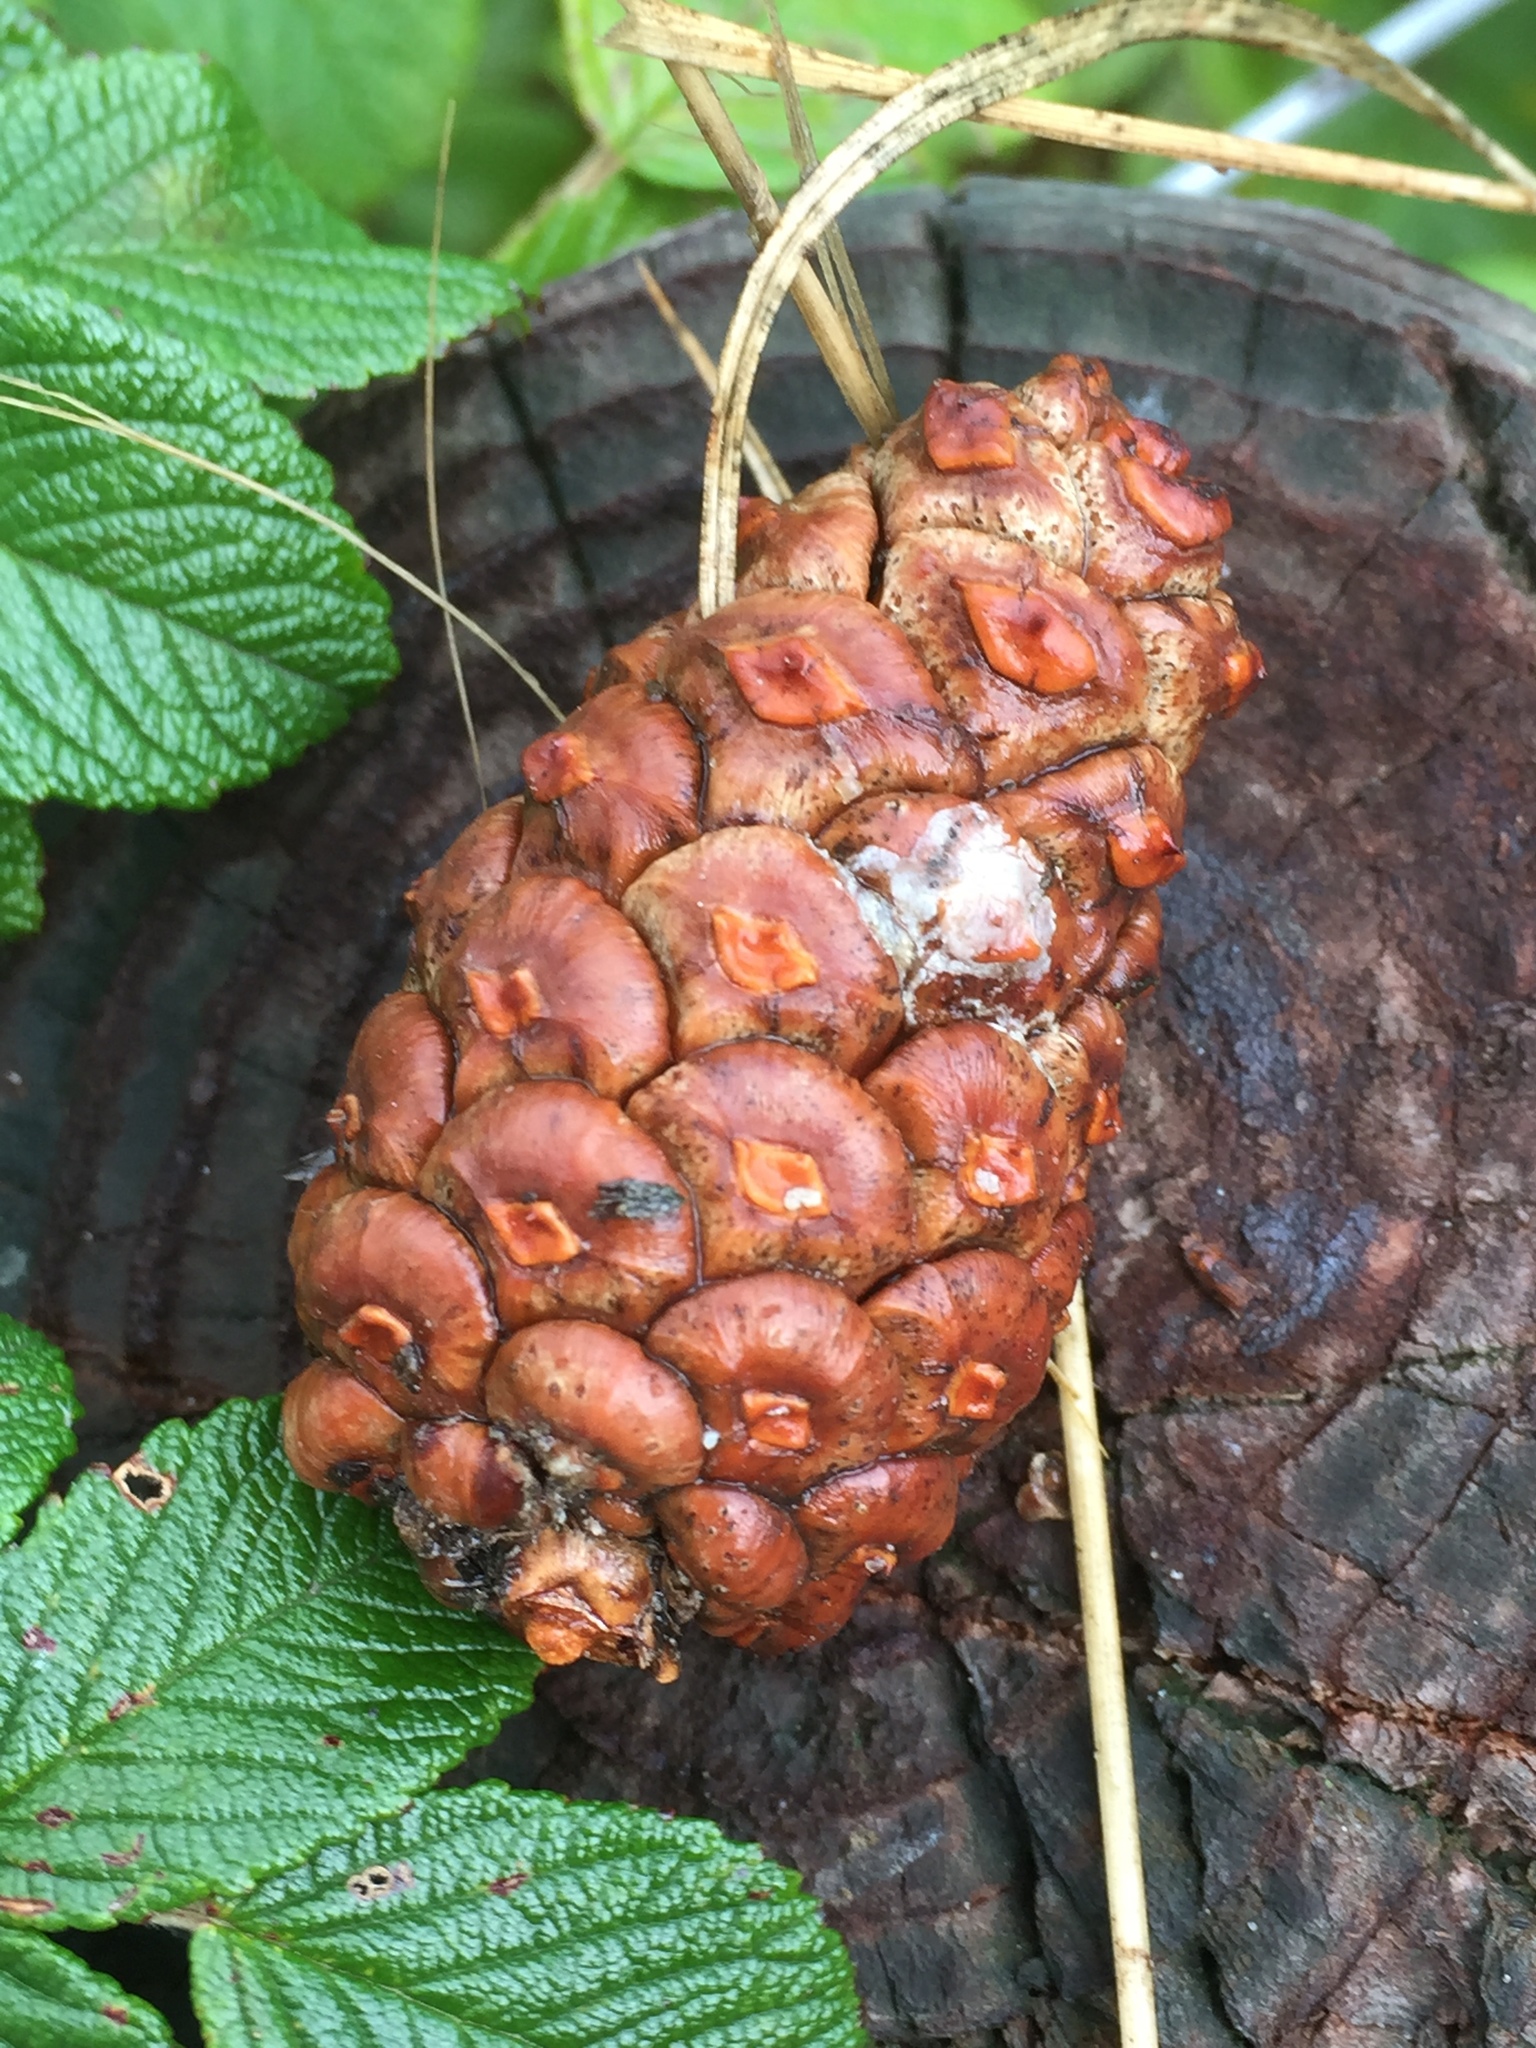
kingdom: Plantae
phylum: Tracheophyta
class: Pinopsida
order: Pinales
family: Pinaceae
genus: Pinus
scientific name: Pinus nigra
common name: Austrian pine
